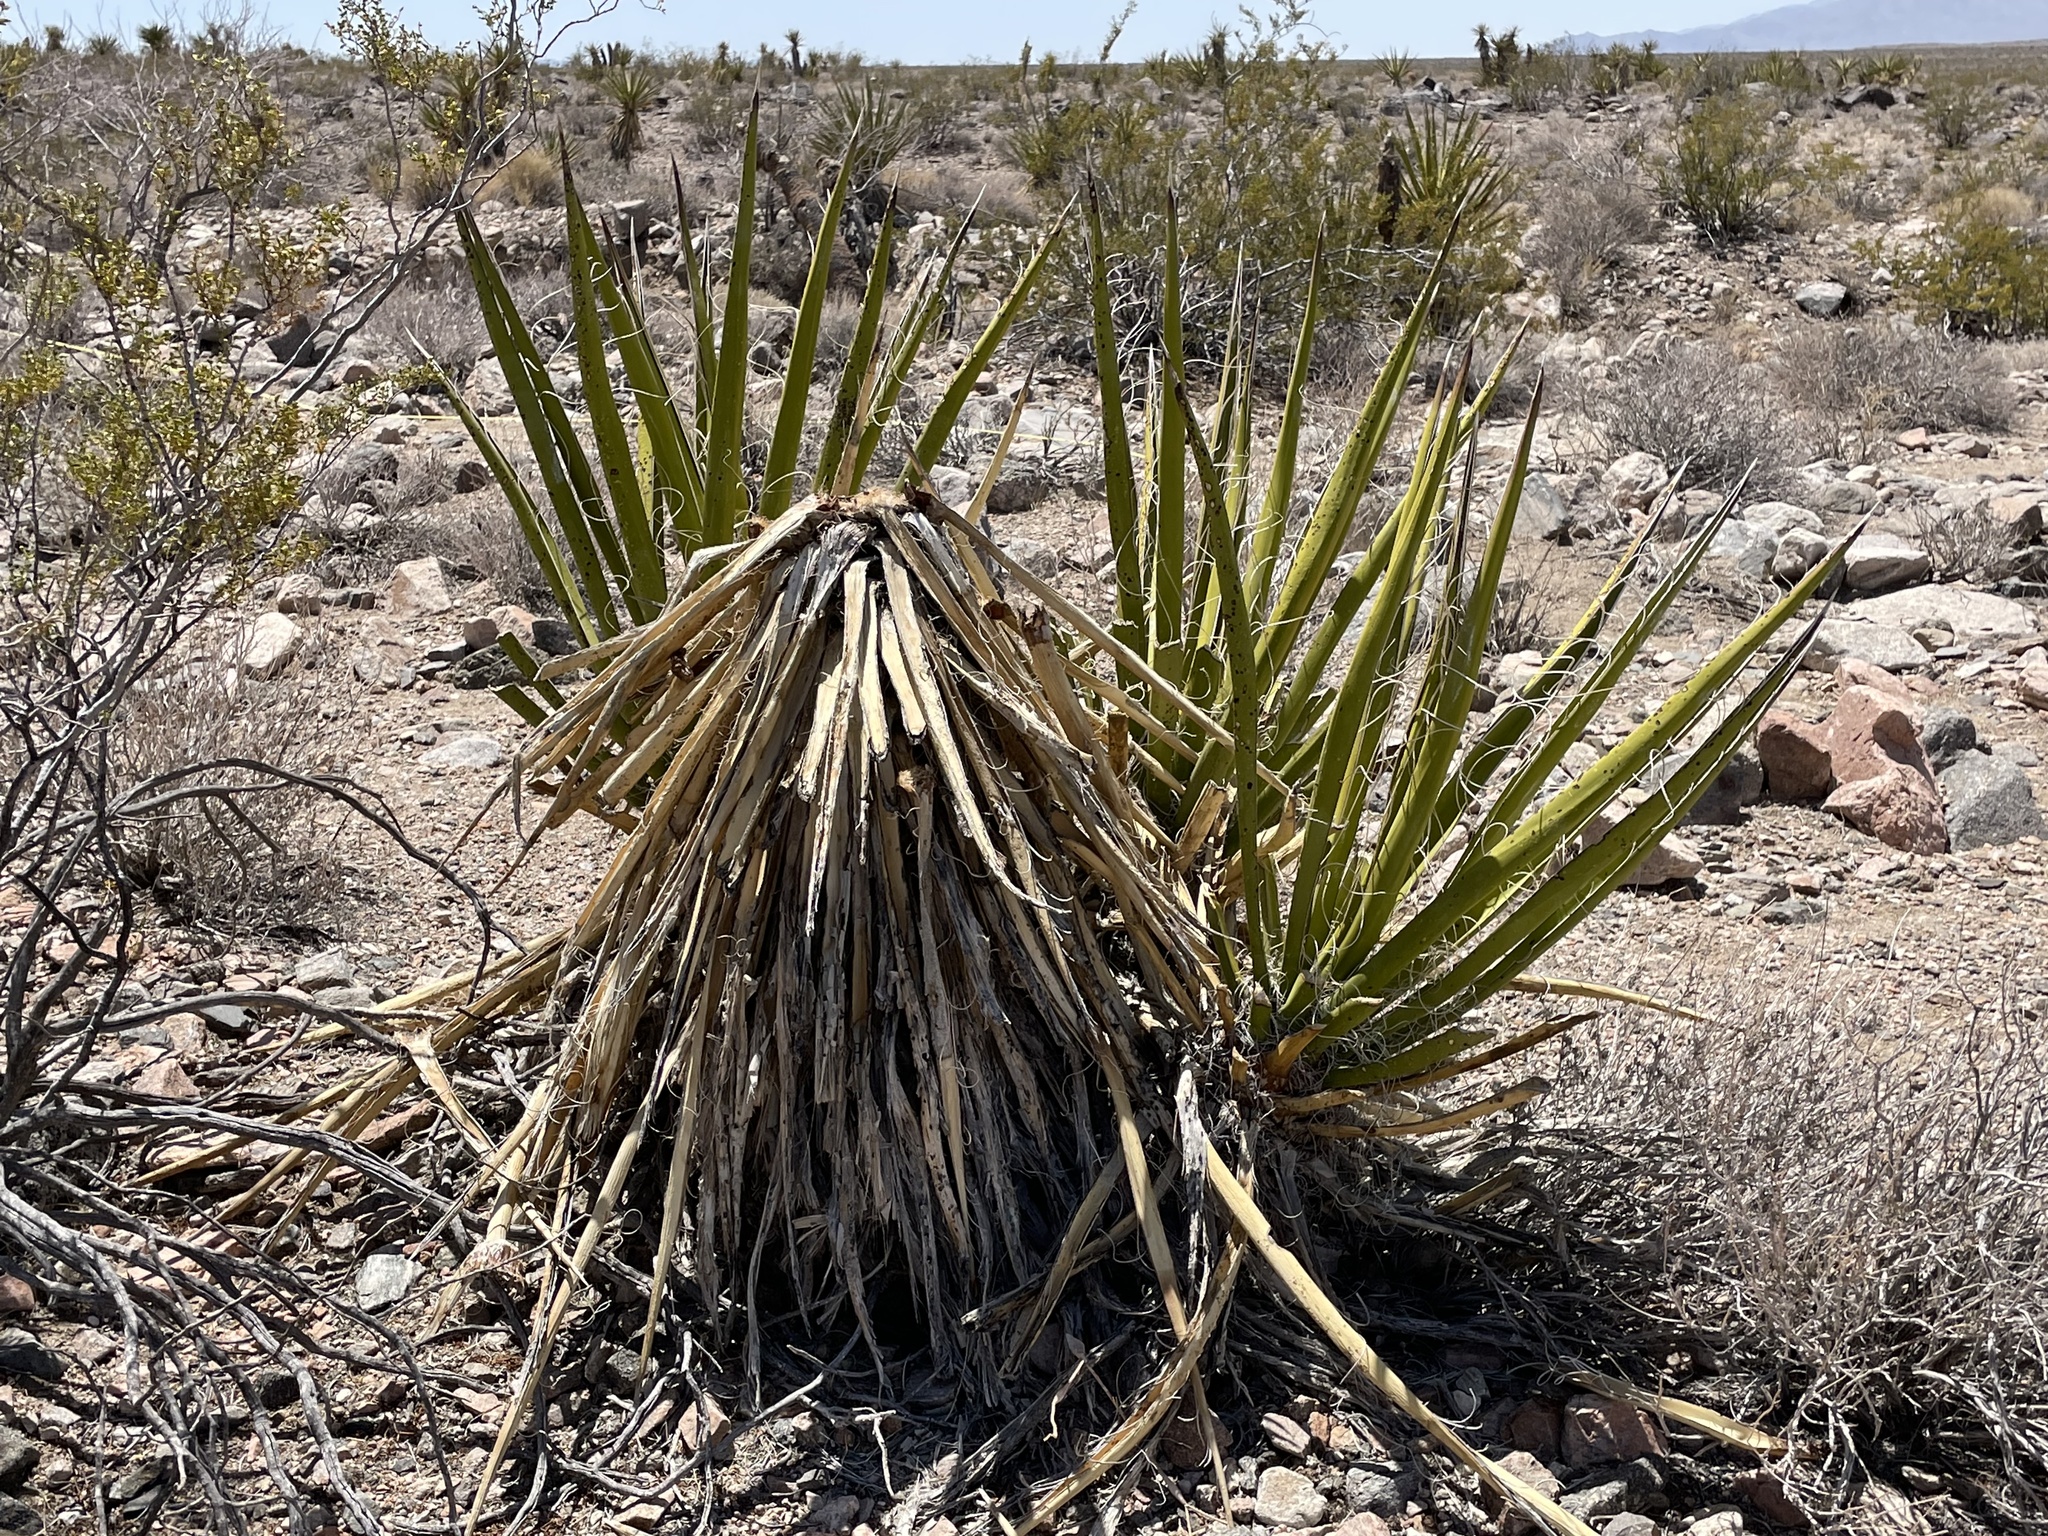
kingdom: Plantae
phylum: Tracheophyta
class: Liliopsida
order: Asparagales
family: Asparagaceae
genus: Yucca
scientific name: Yucca schidigera
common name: Mojave yucca
